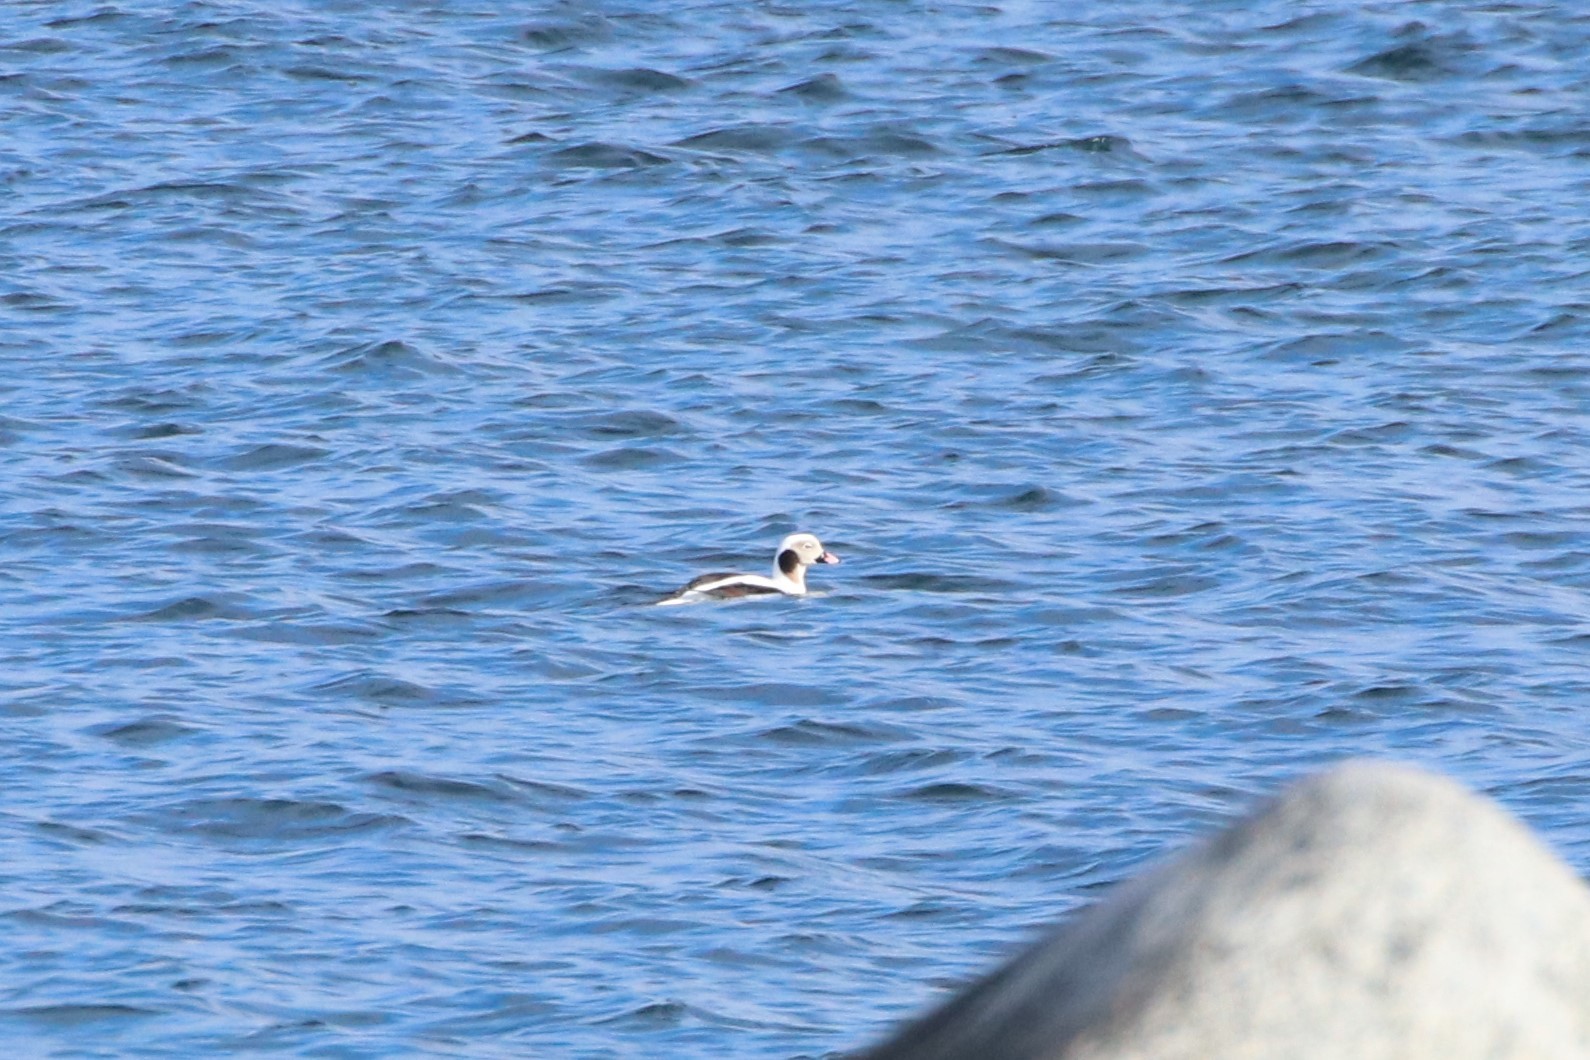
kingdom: Animalia
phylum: Chordata
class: Aves
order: Anseriformes
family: Anatidae
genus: Clangula
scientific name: Clangula hyemalis
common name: Long-tailed duck
